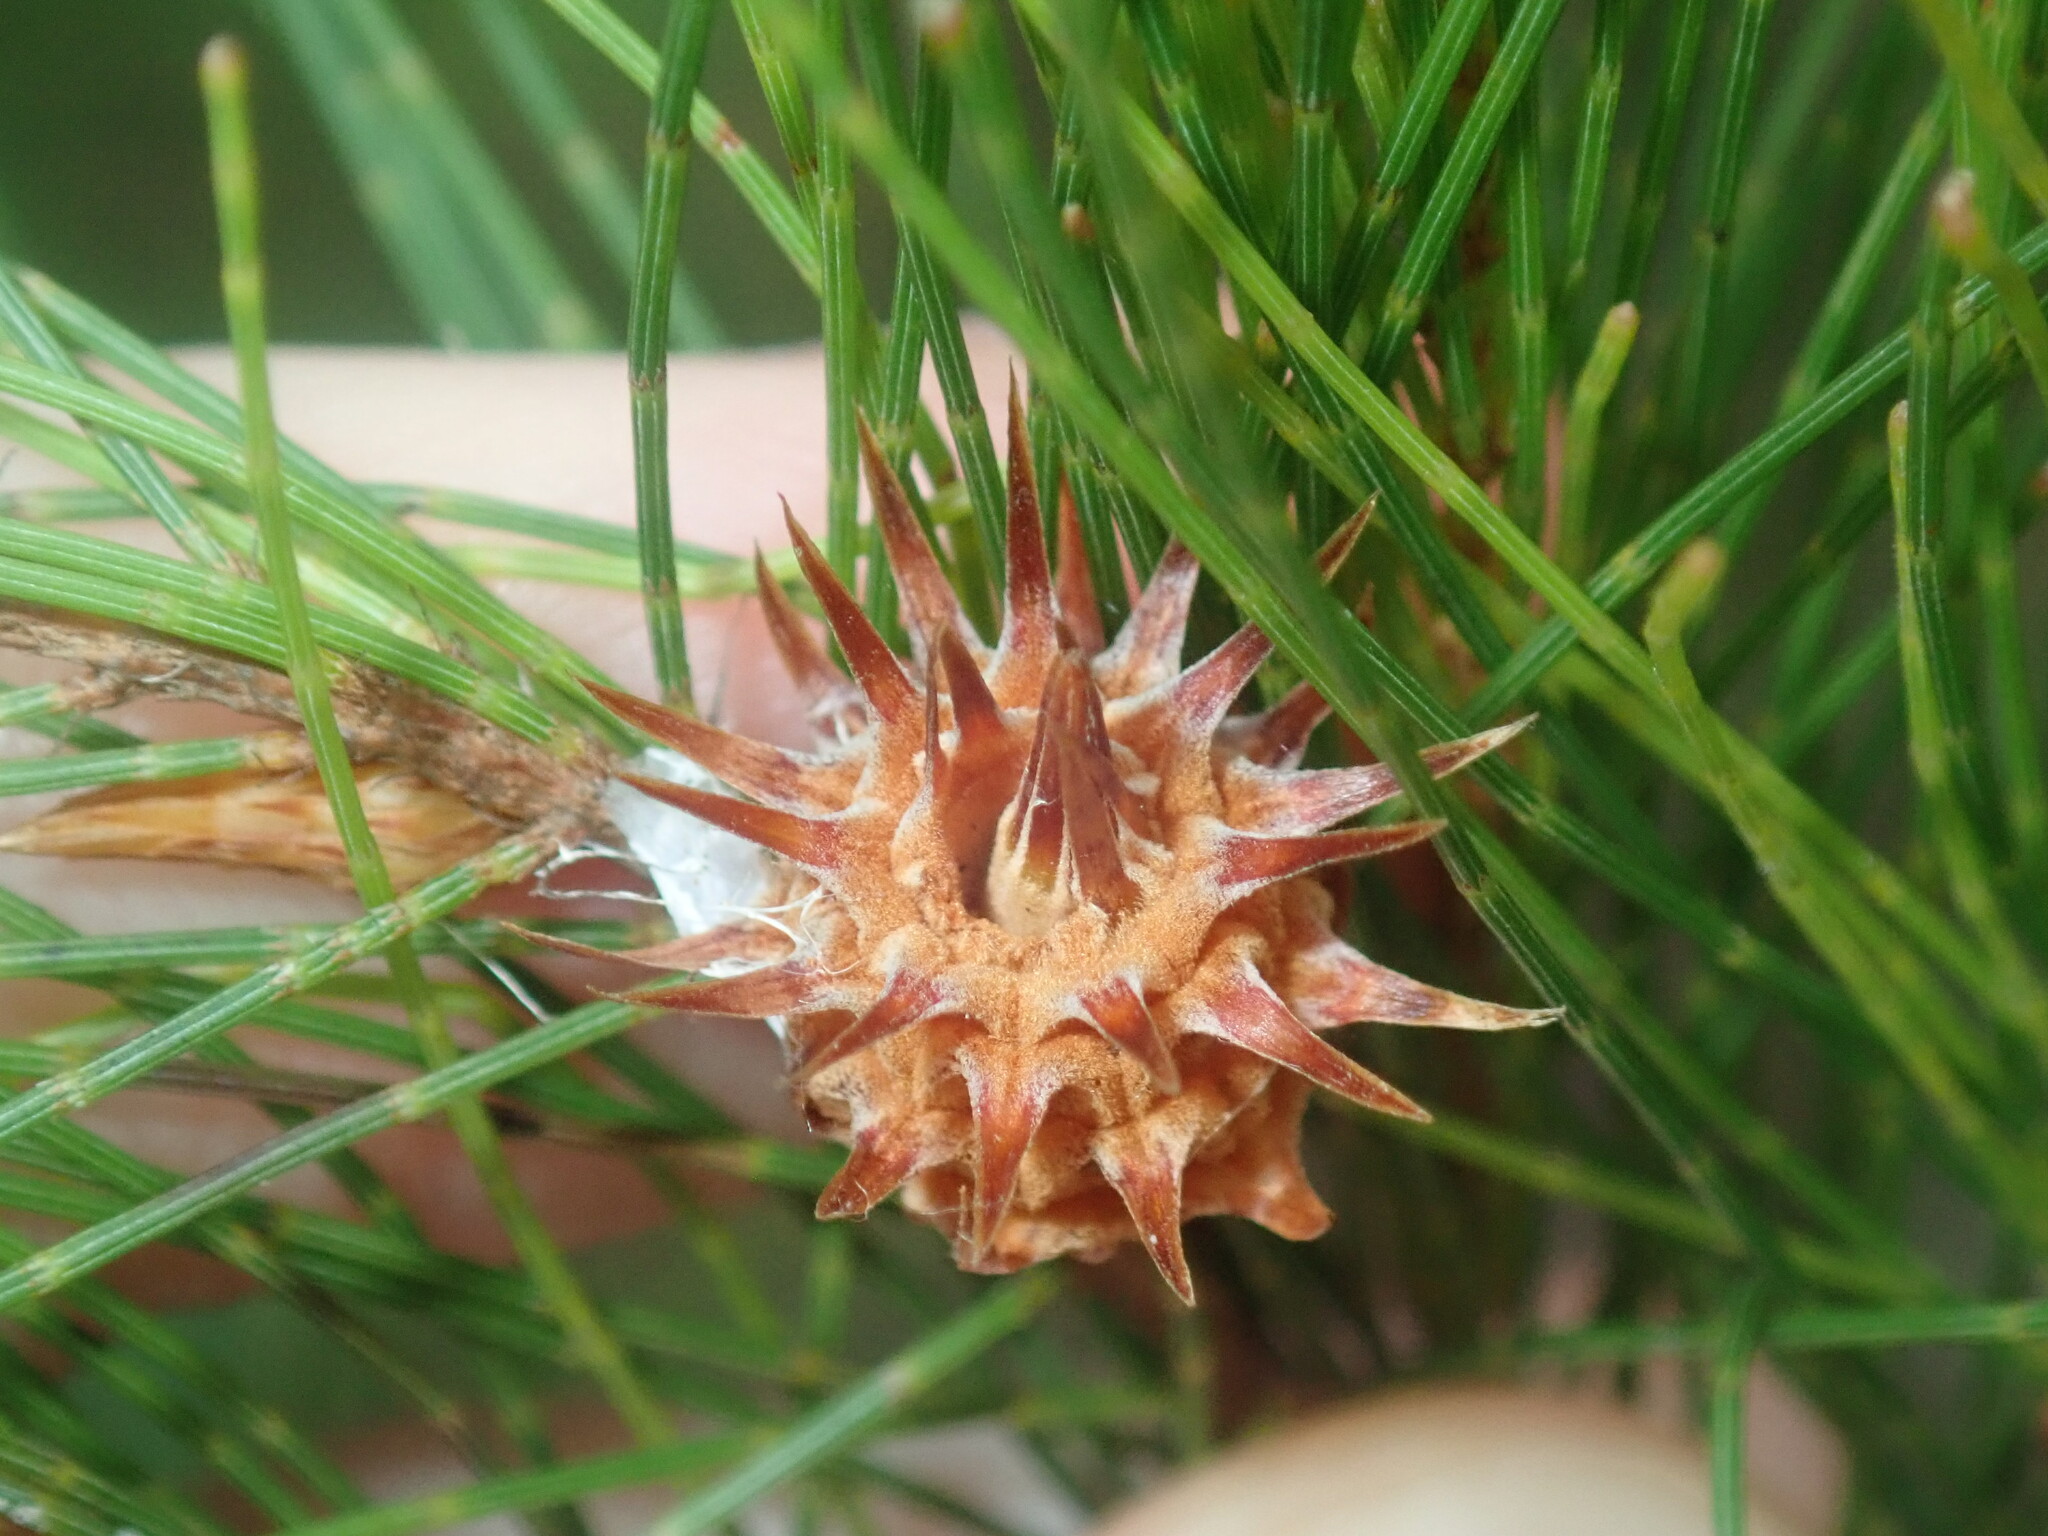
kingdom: Animalia
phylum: Arthropoda
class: Insecta
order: Hemiptera
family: Eriococcidae
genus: Cylindrococcus
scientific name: Cylindrococcus spiniferus
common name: Casuarina gall
